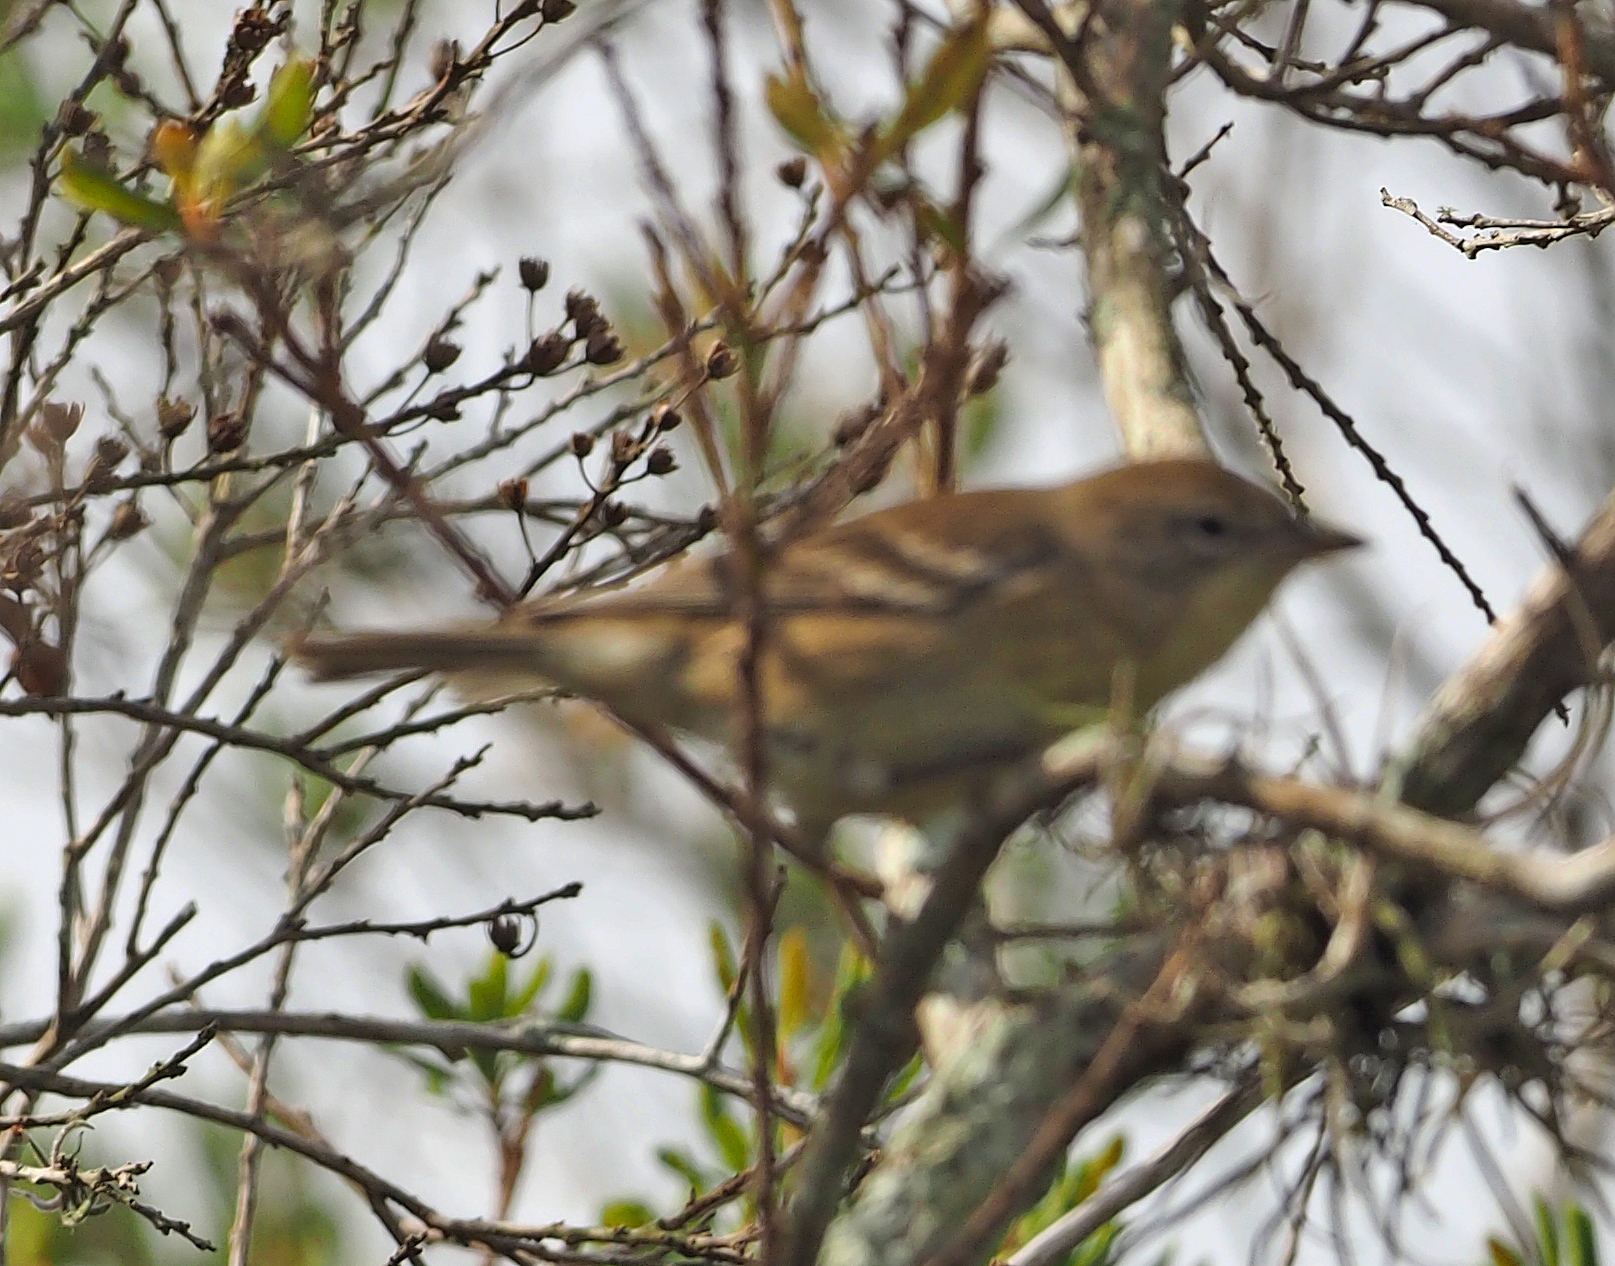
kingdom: Animalia
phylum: Chordata
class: Aves
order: Passeriformes
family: Parulidae
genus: Setophaga
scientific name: Setophaga pinus
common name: Pine warbler
